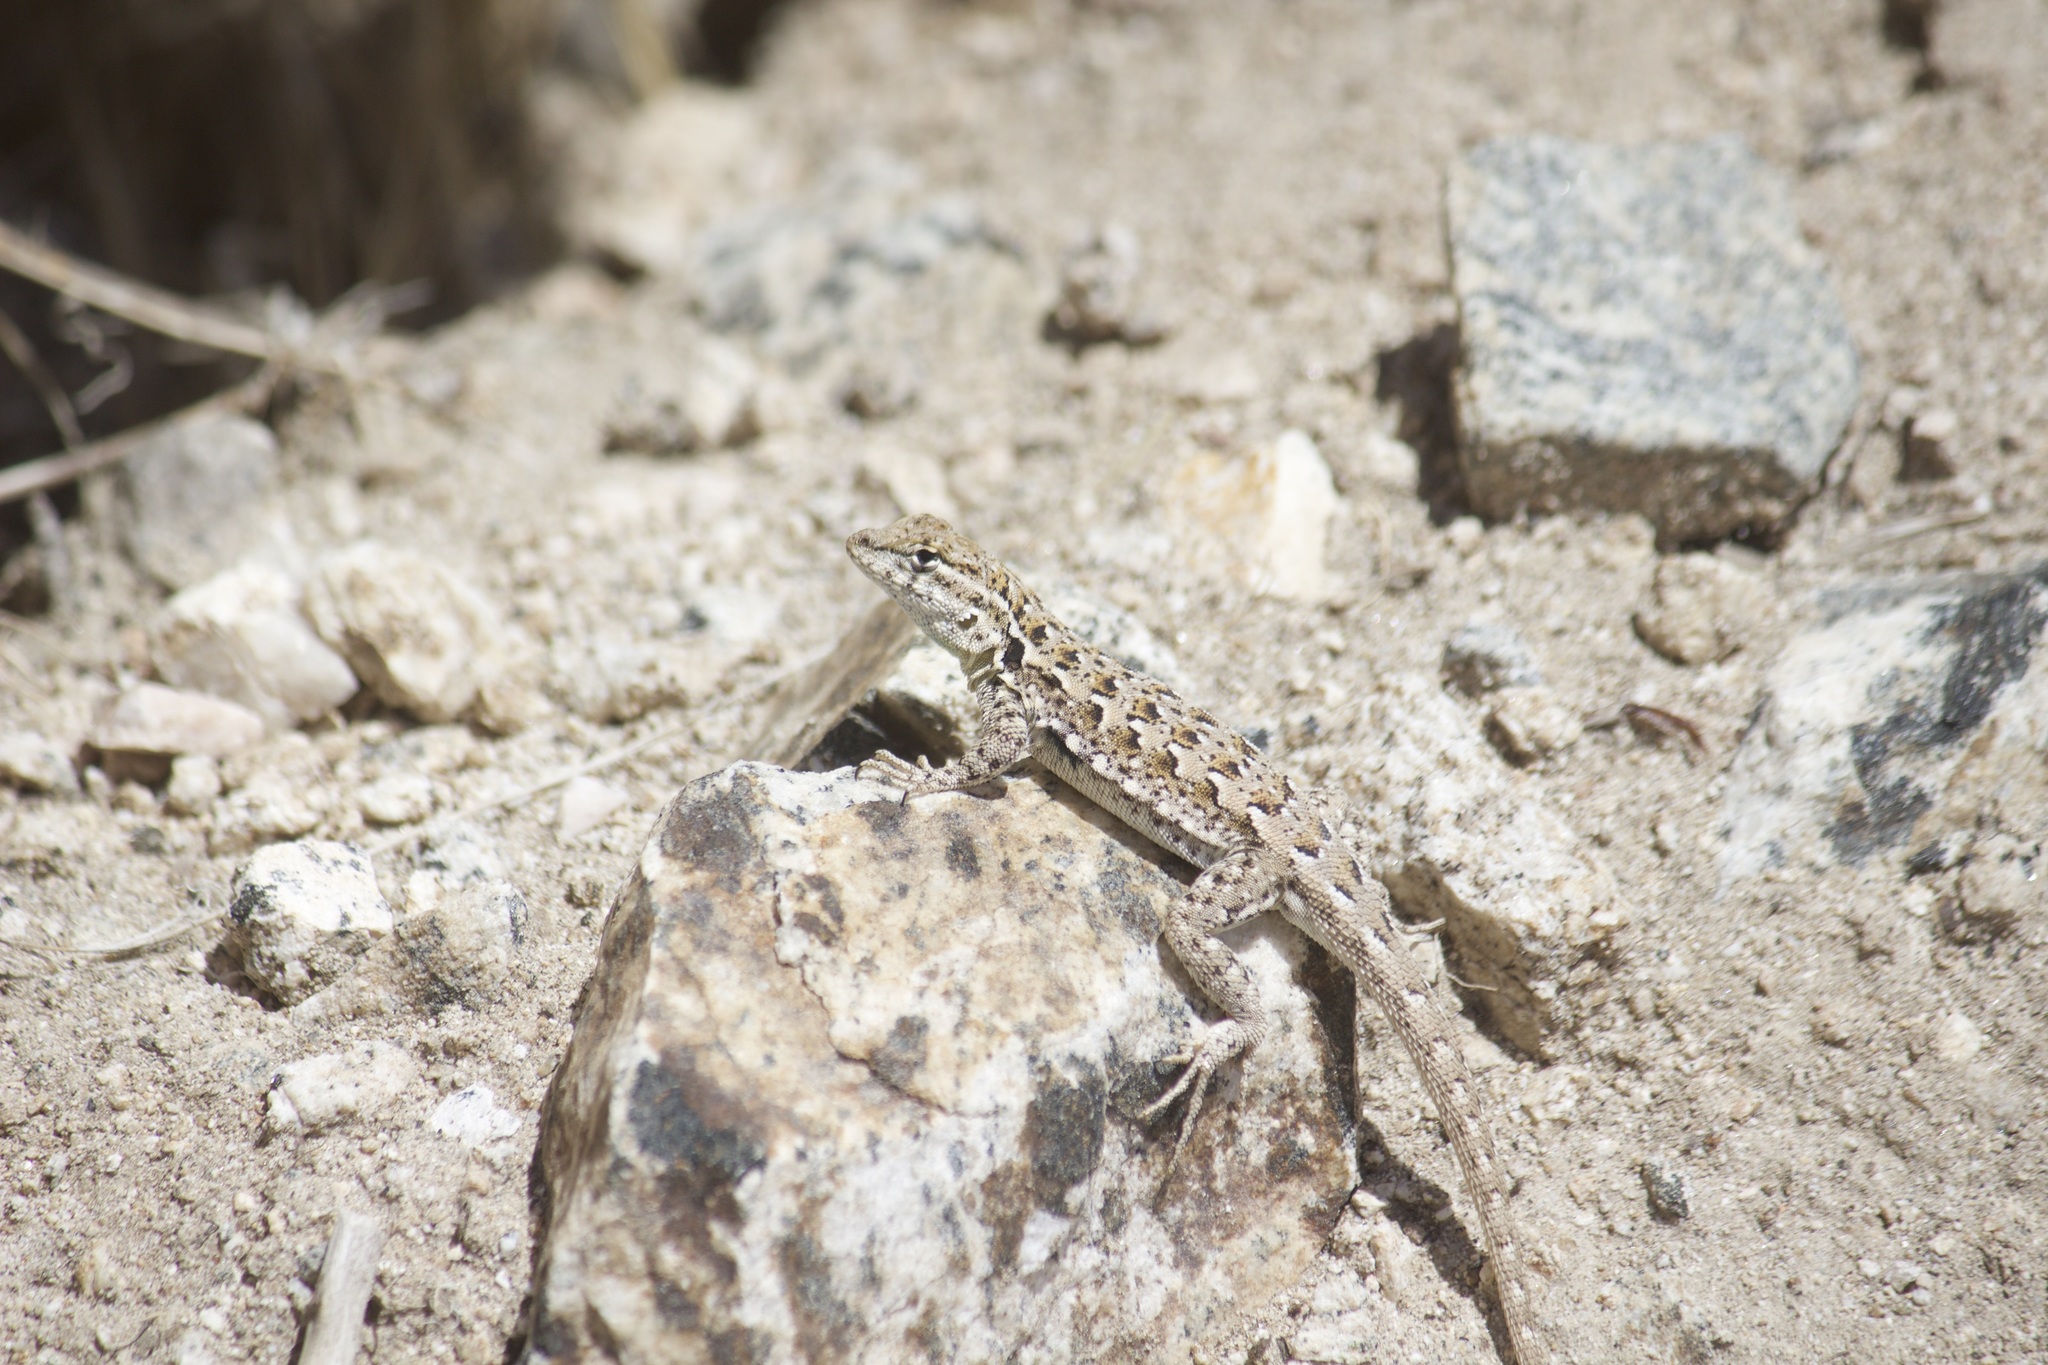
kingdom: Animalia
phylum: Chordata
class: Squamata
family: Phrynosomatidae
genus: Uta
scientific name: Uta stansburiana
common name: Side-blotched lizard
